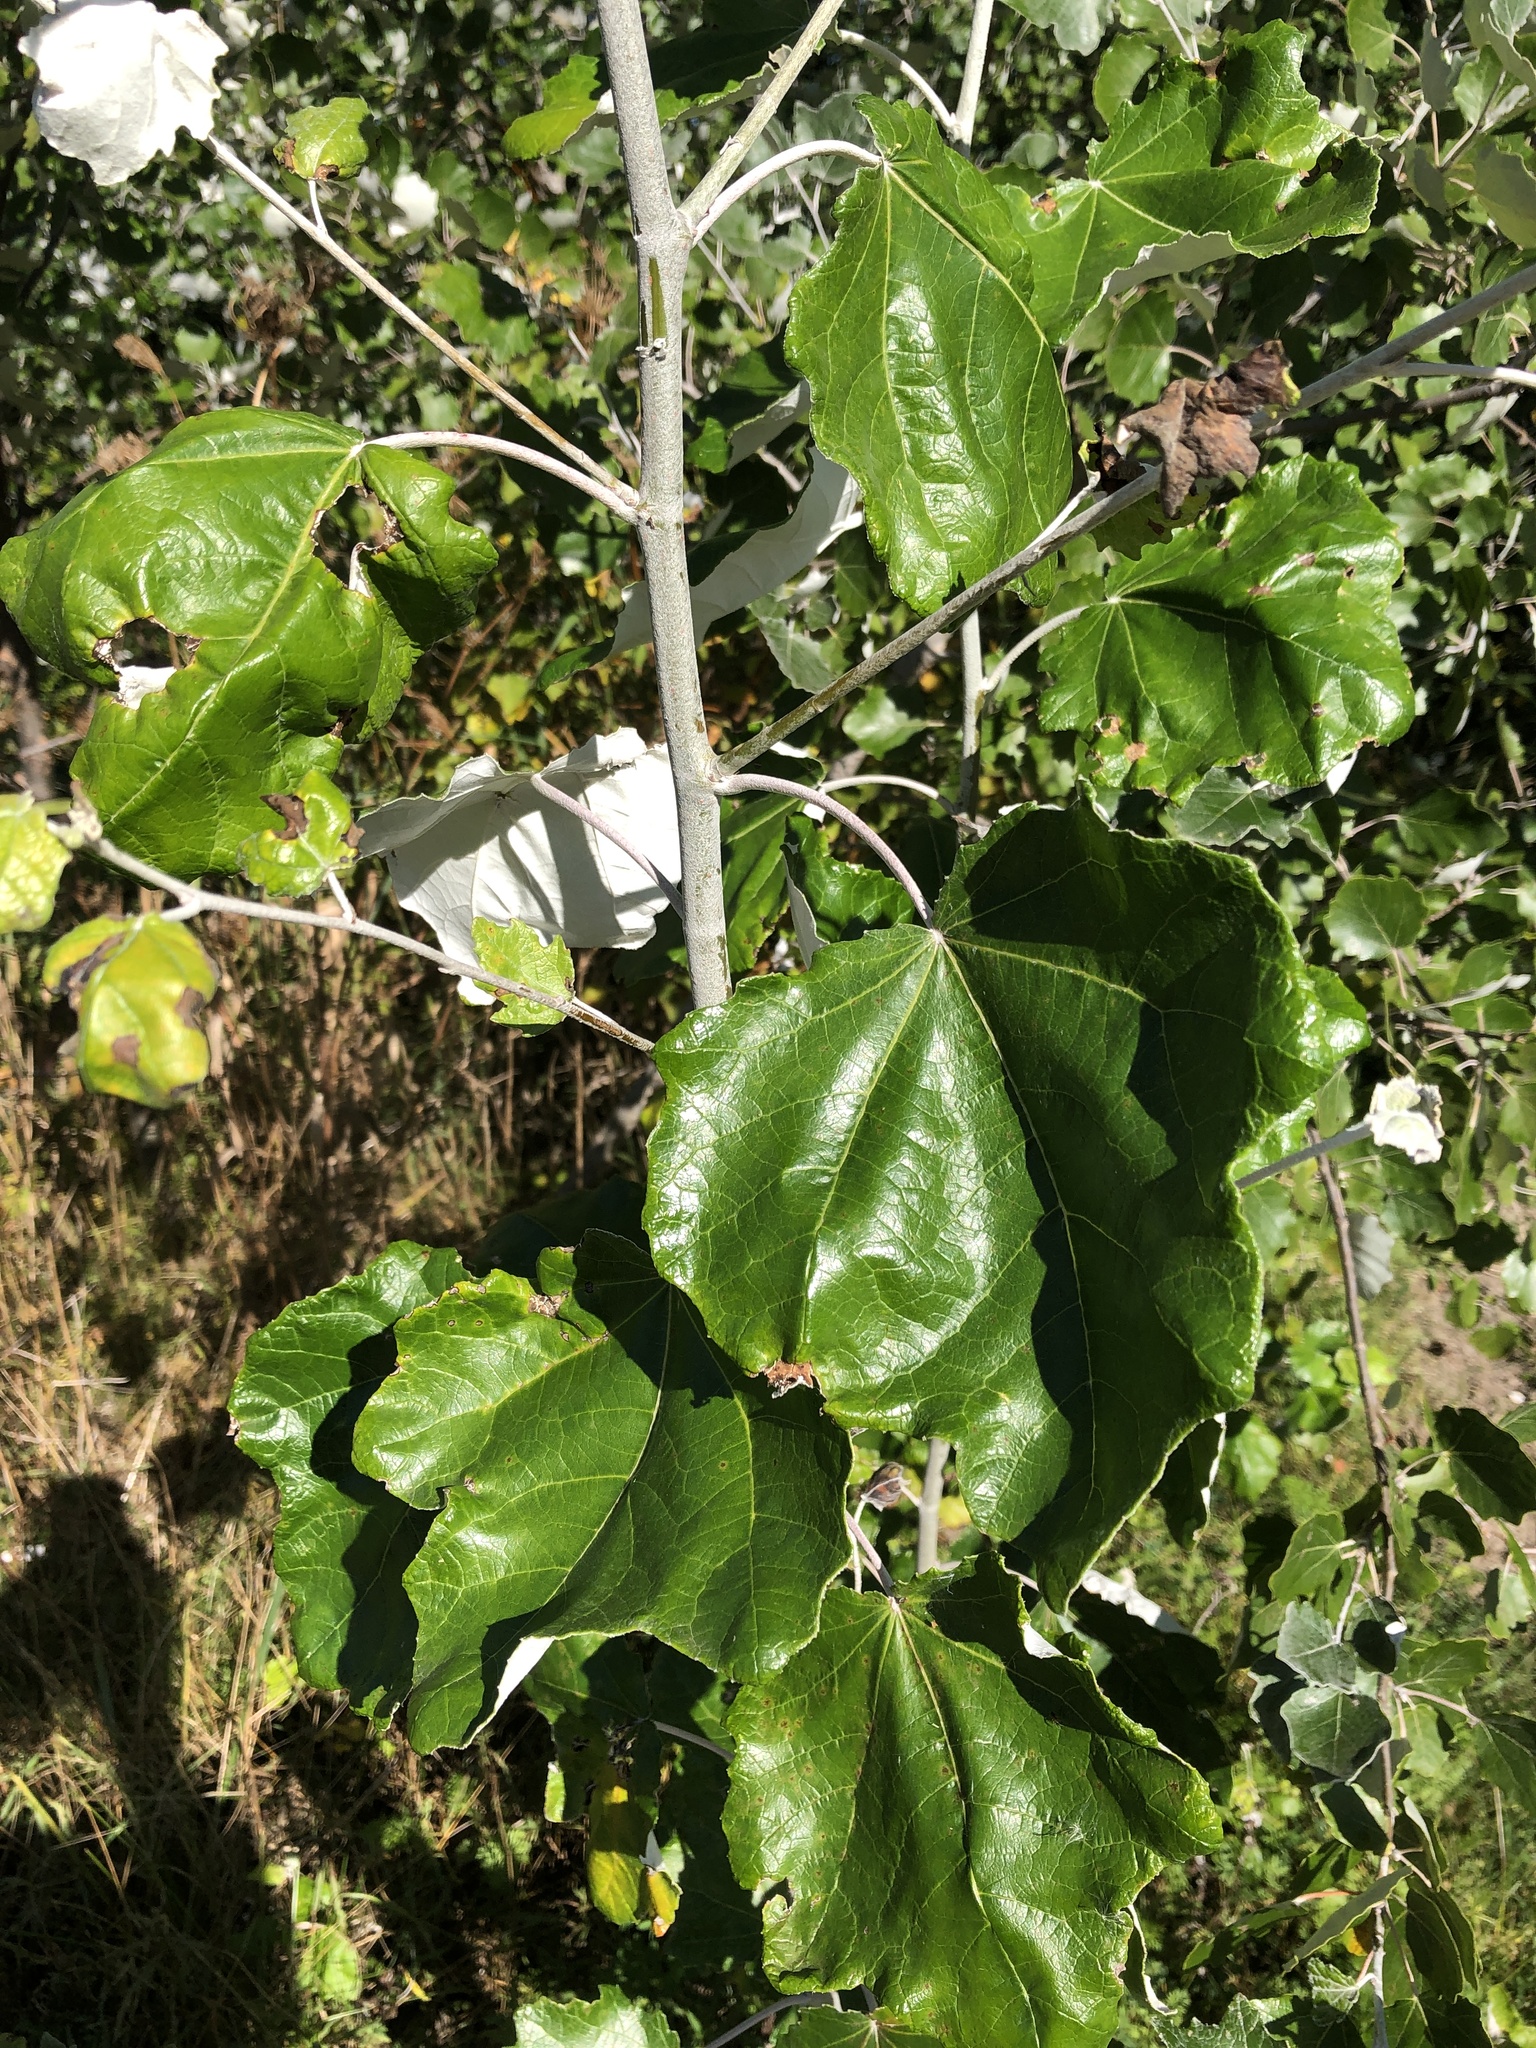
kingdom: Plantae
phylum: Tracheophyta
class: Magnoliopsida
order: Malpighiales
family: Salicaceae
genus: Populus
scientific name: Populus alba
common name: White poplar
